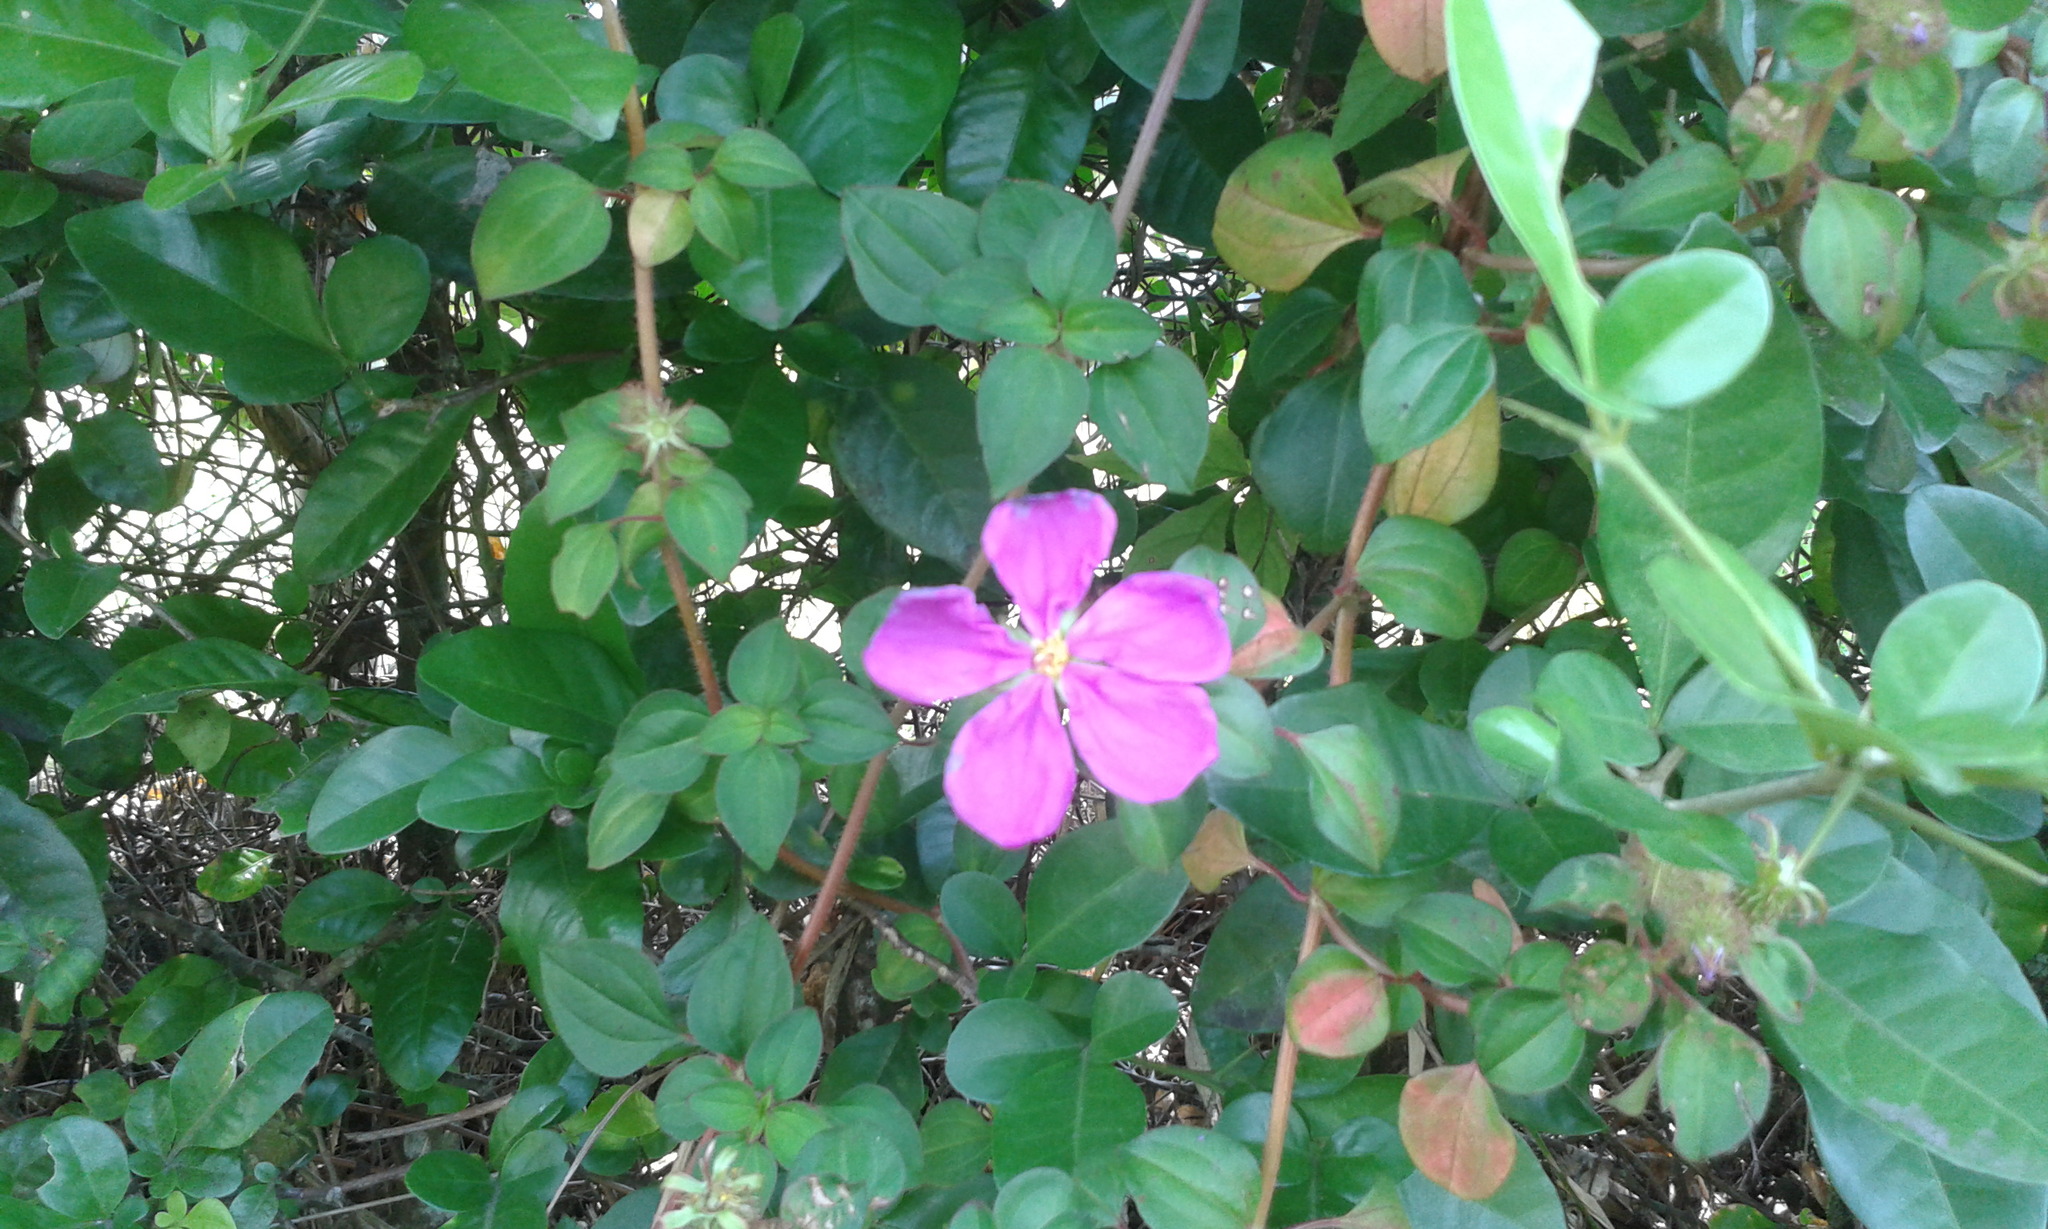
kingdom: Plantae
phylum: Tracheophyta
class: Magnoliopsida
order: Myrtales
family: Melastomataceae
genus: Heterotis
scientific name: Heterotis rotundifolia
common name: Pinklady
